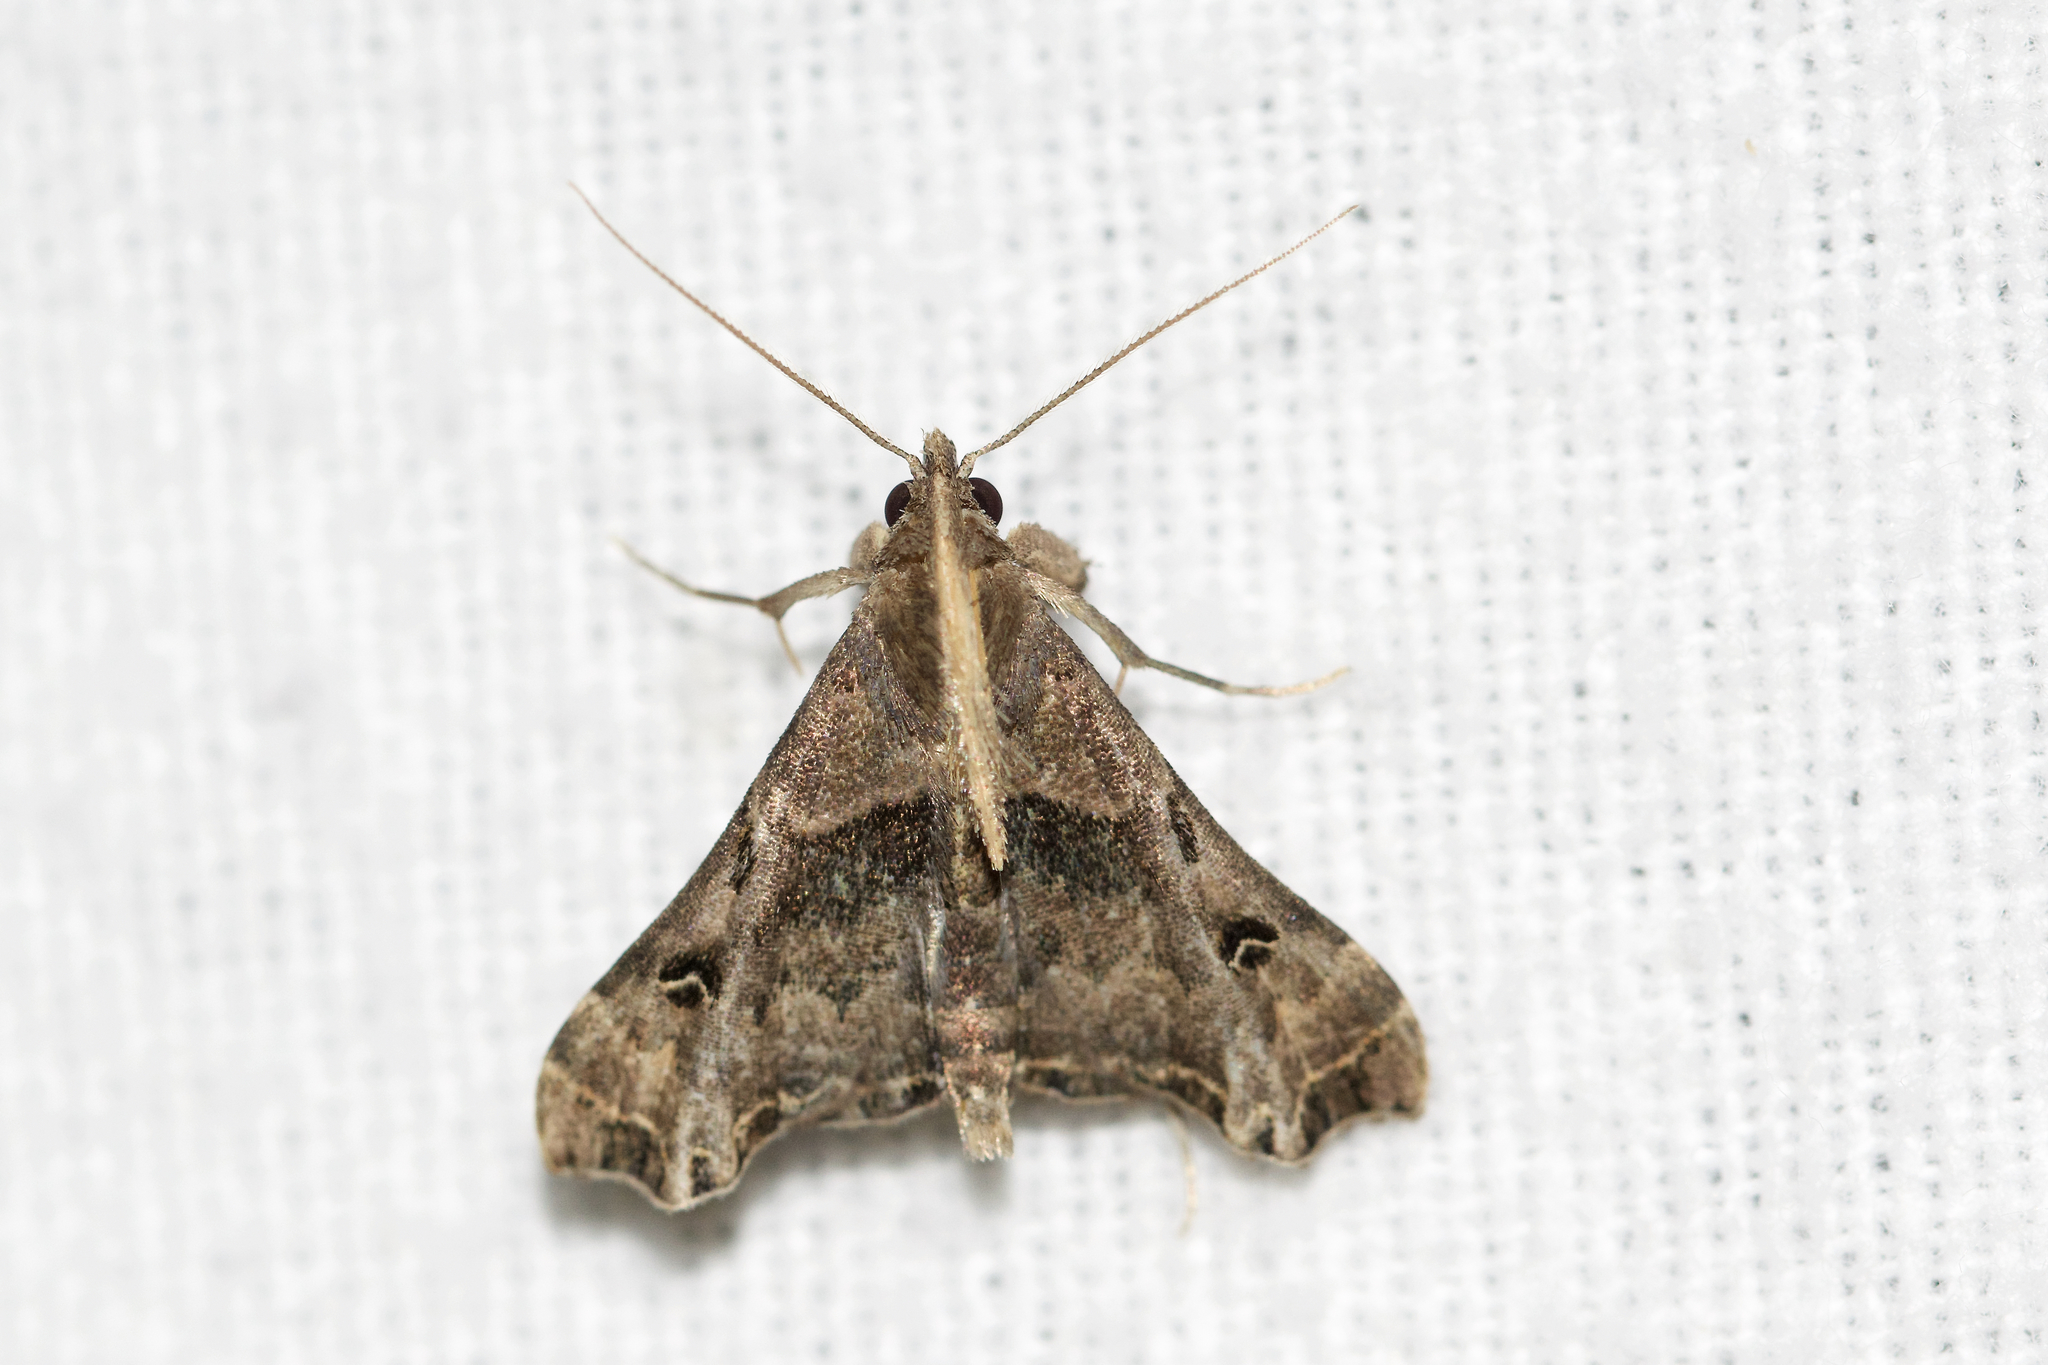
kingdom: Animalia
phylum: Arthropoda
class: Insecta
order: Lepidoptera
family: Erebidae
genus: Palthis
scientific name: Palthis asopialis
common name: Faint-spotted palthis moth
